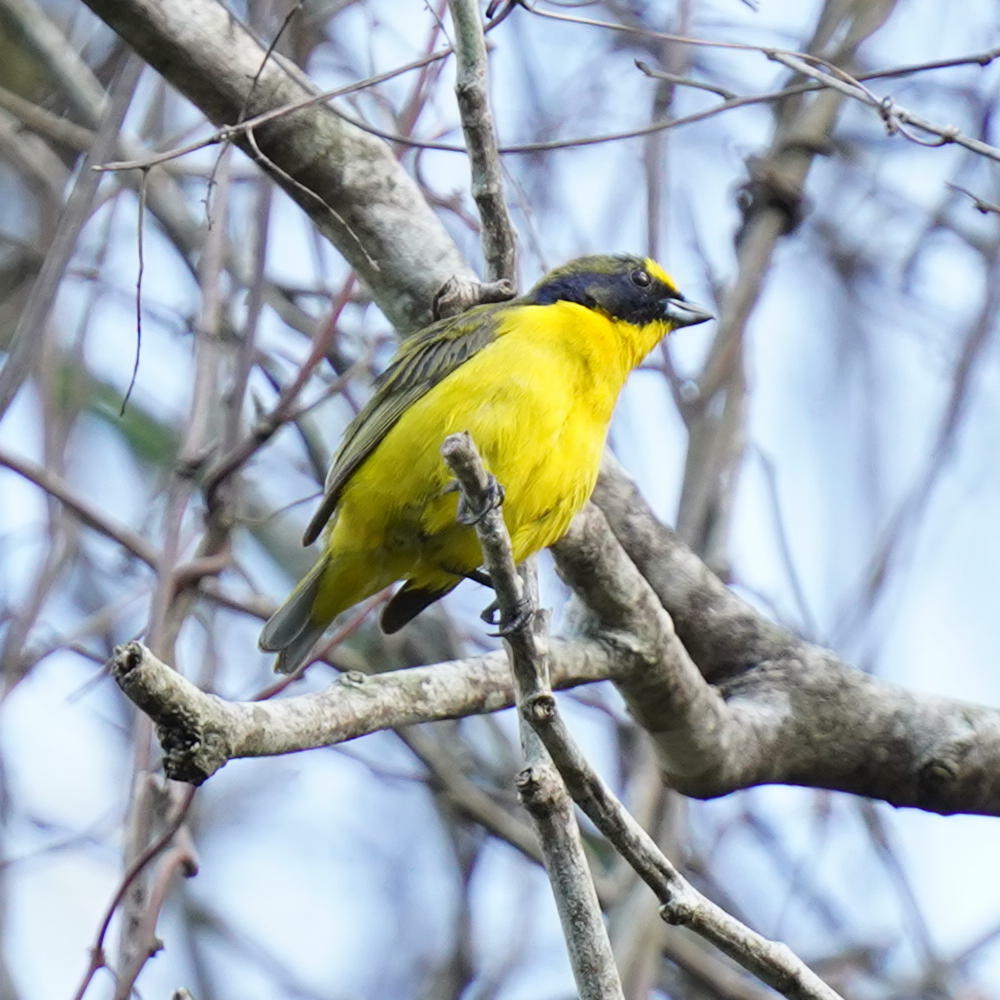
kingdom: Animalia
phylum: Chordata
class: Aves
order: Passeriformes
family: Fringillidae
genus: Euphonia
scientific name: Euphonia laniirostris
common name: Thick-billed euphonia
